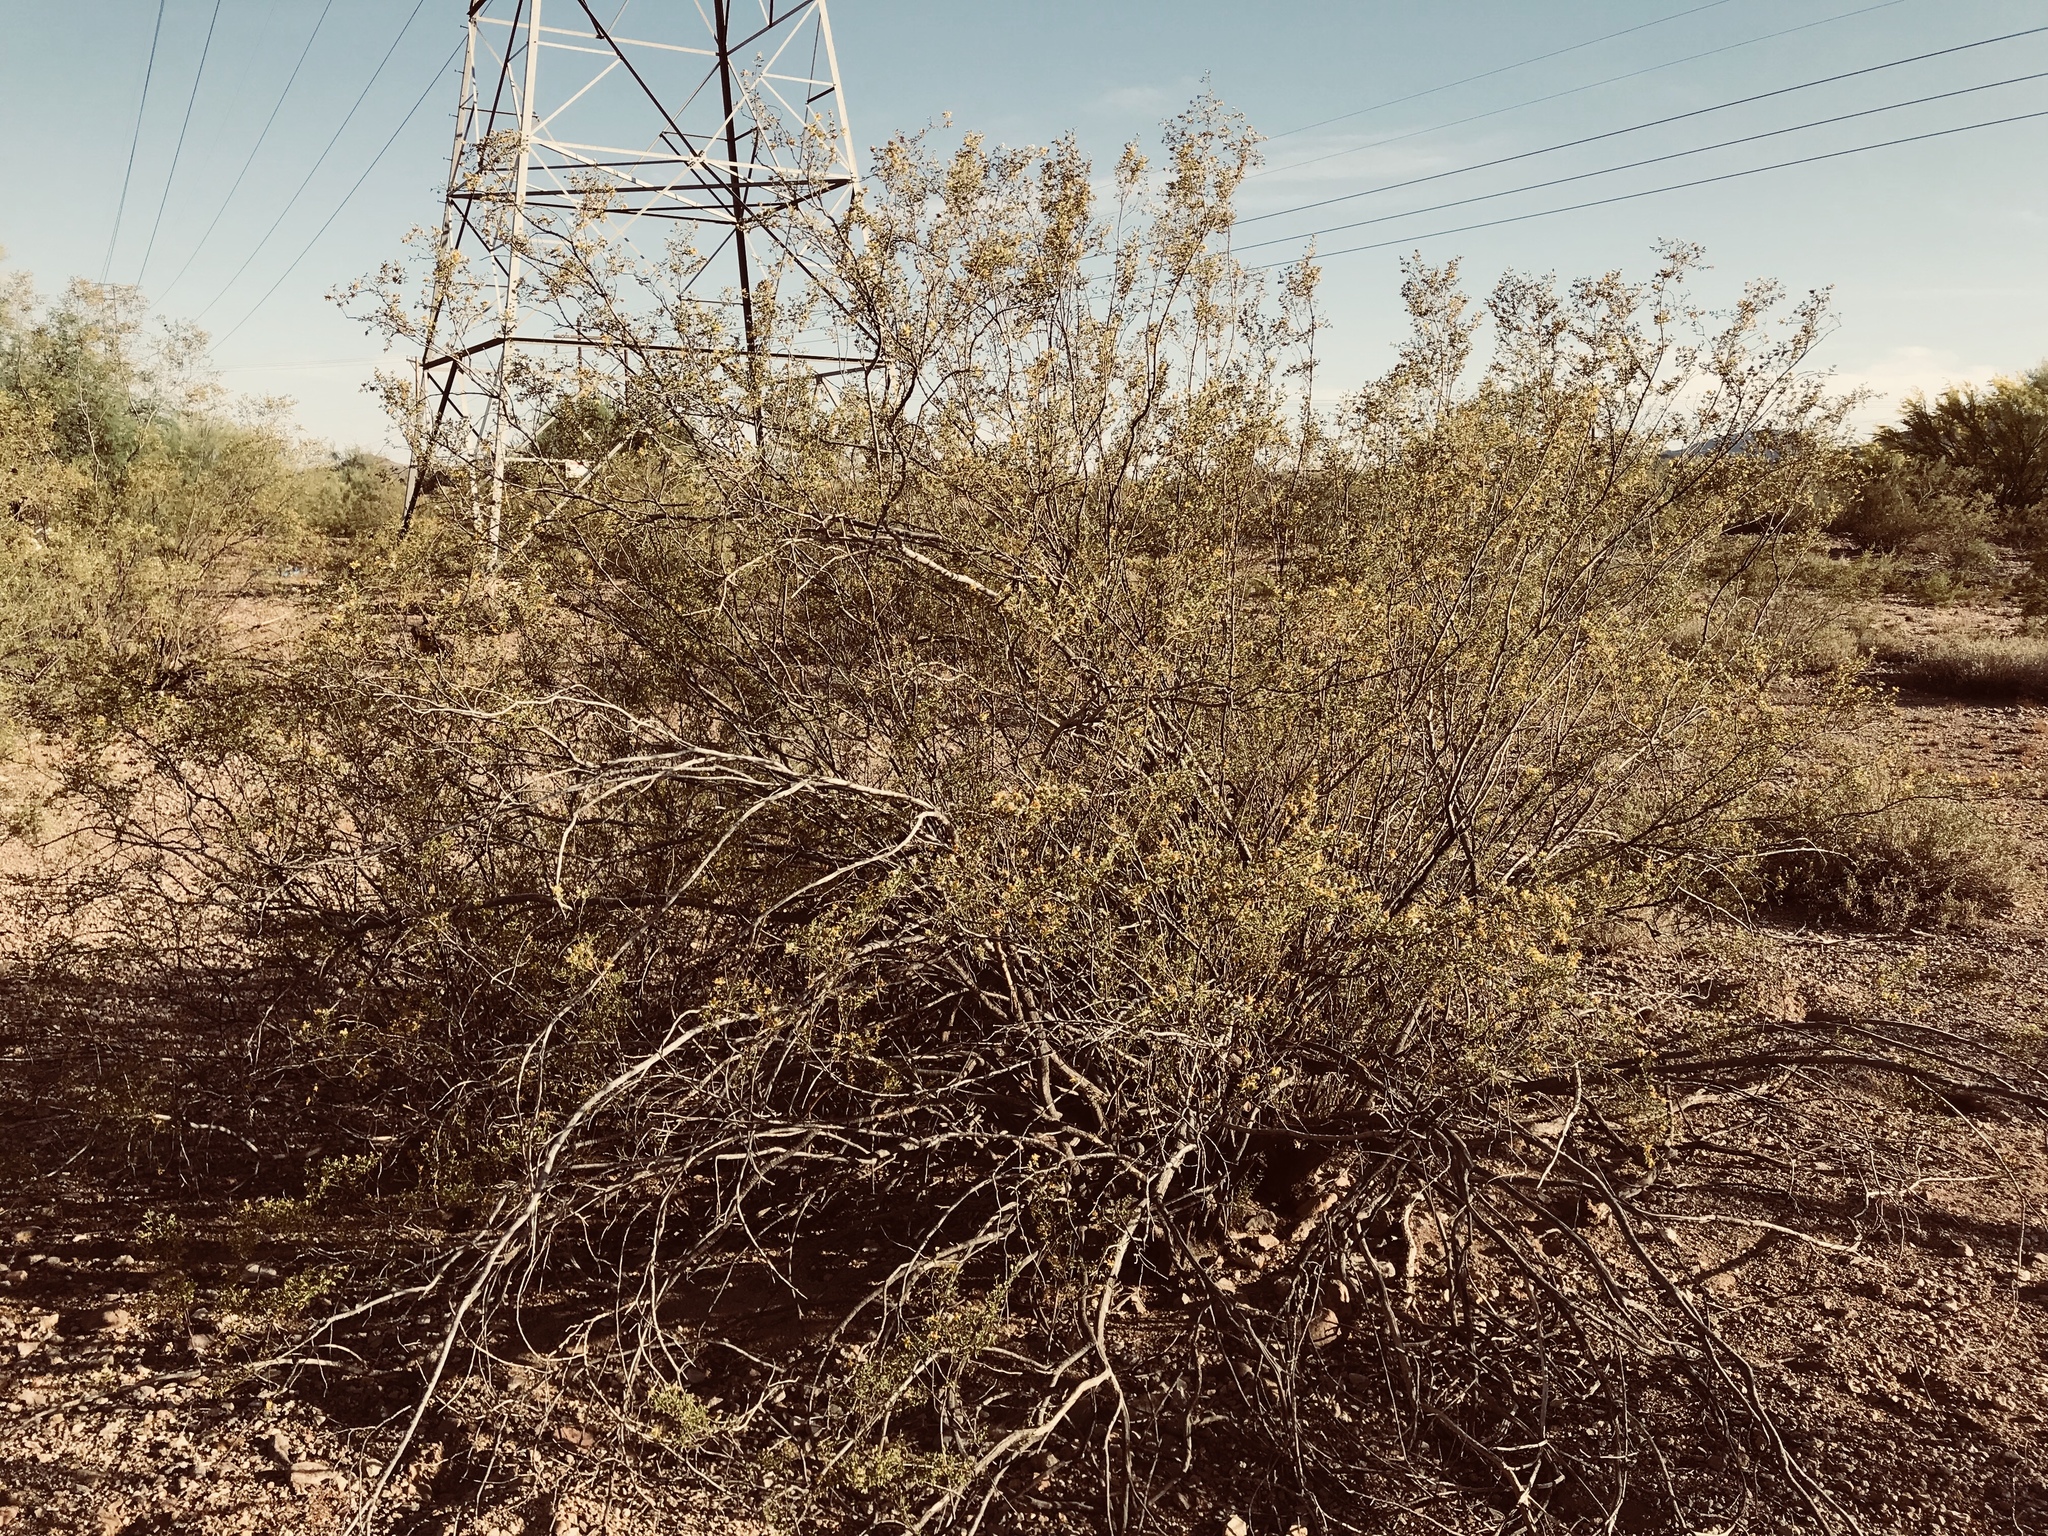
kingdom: Plantae
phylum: Tracheophyta
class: Magnoliopsida
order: Zygophyllales
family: Zygophyllaceae
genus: Larrea
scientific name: Larrea tridentata
